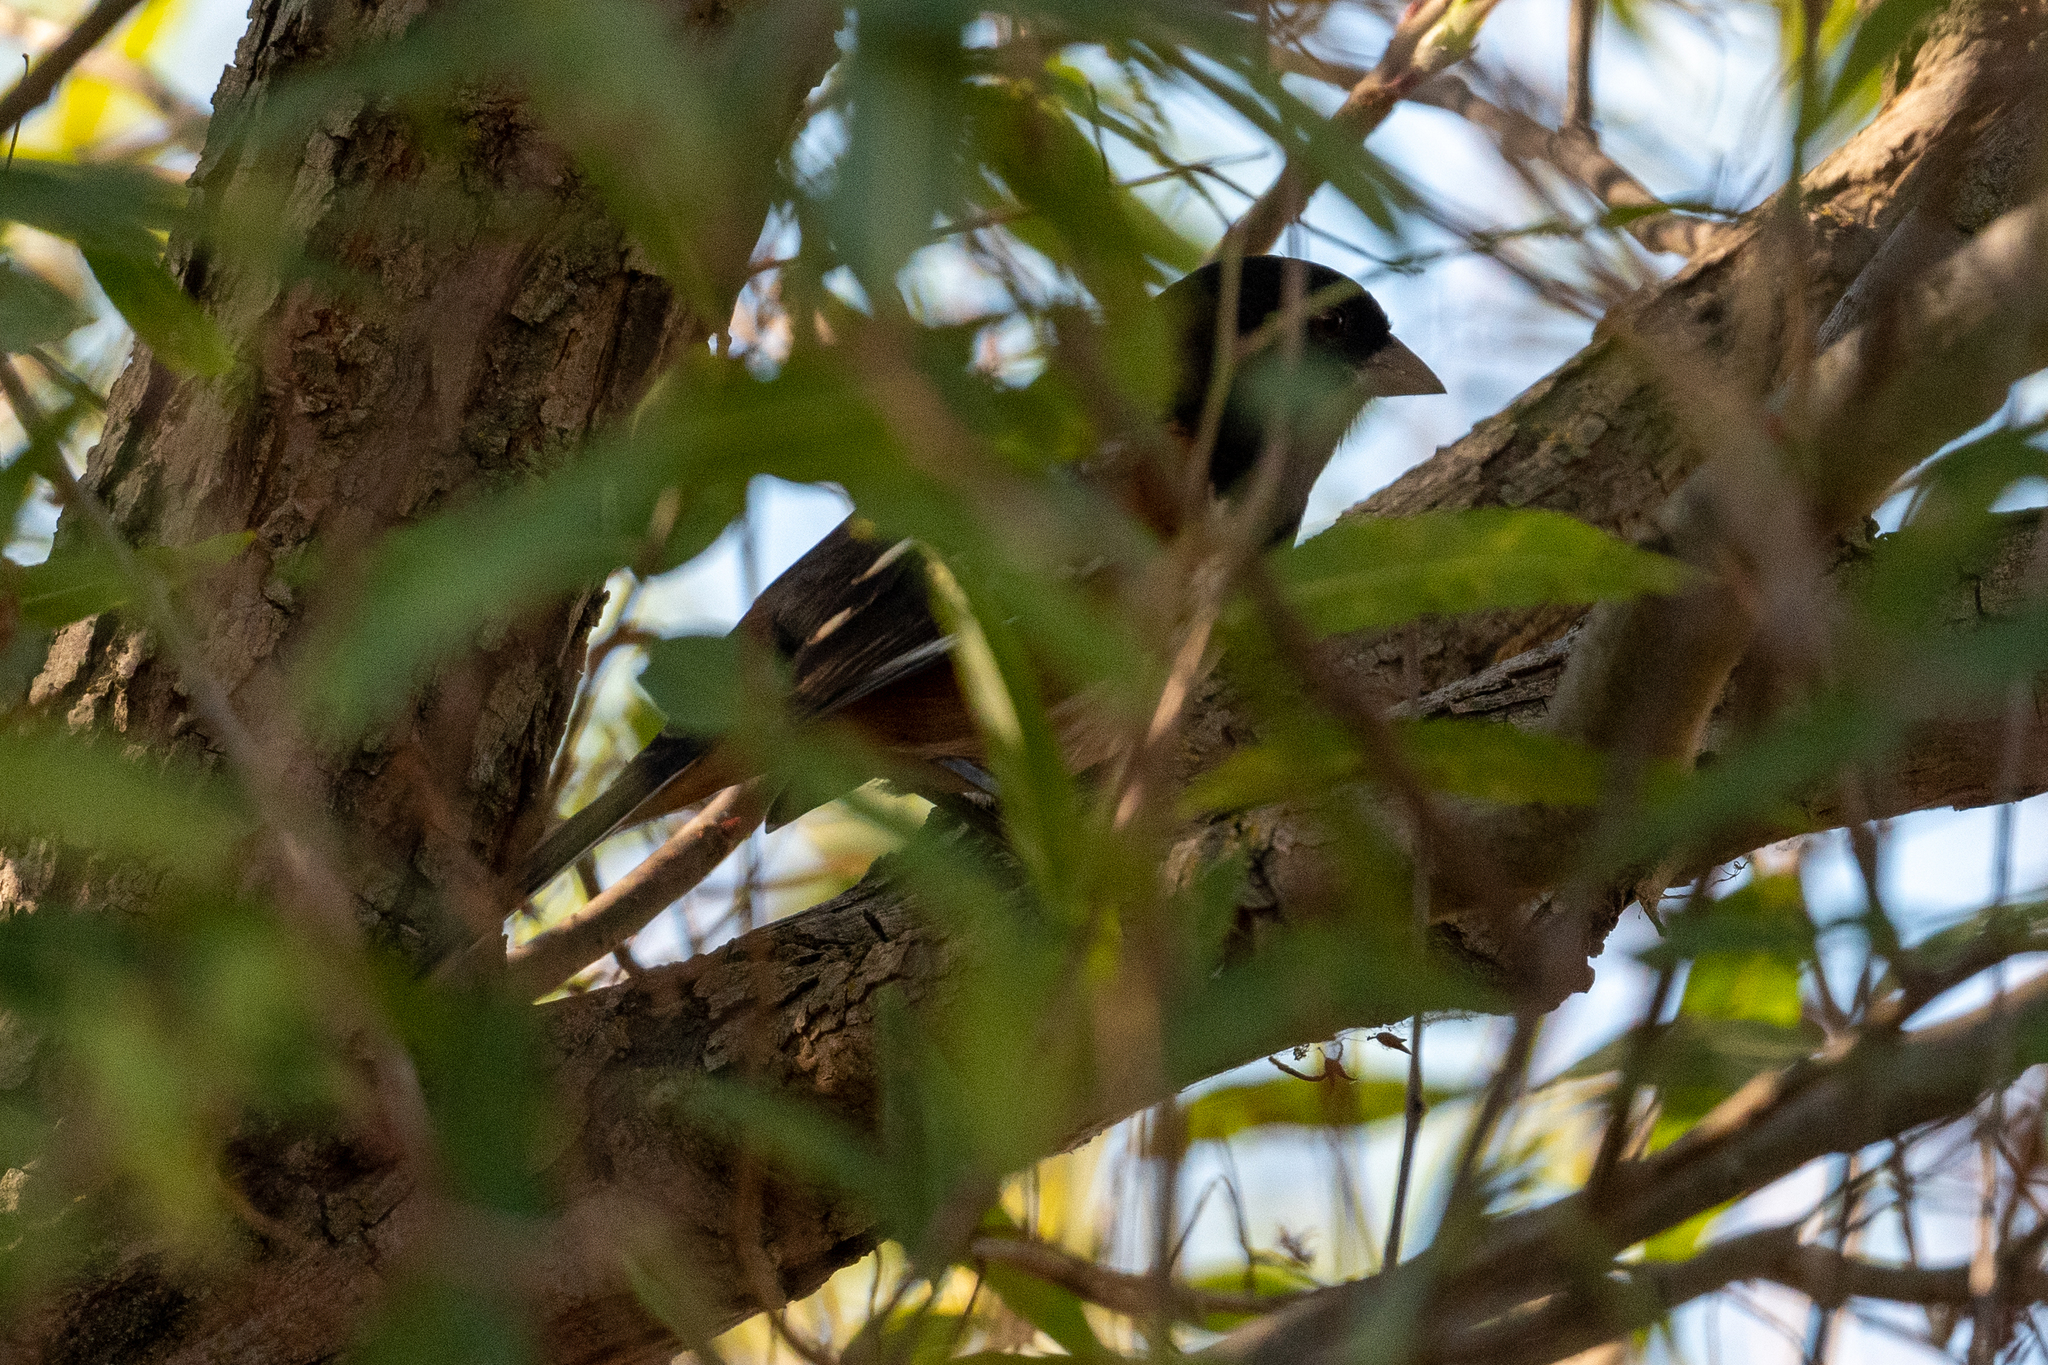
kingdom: Animalia
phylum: Chordata
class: Aves
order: Passeriformes
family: Passerellidae
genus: Pipilo
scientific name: Pipilo maculatus
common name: Spotted towhee
